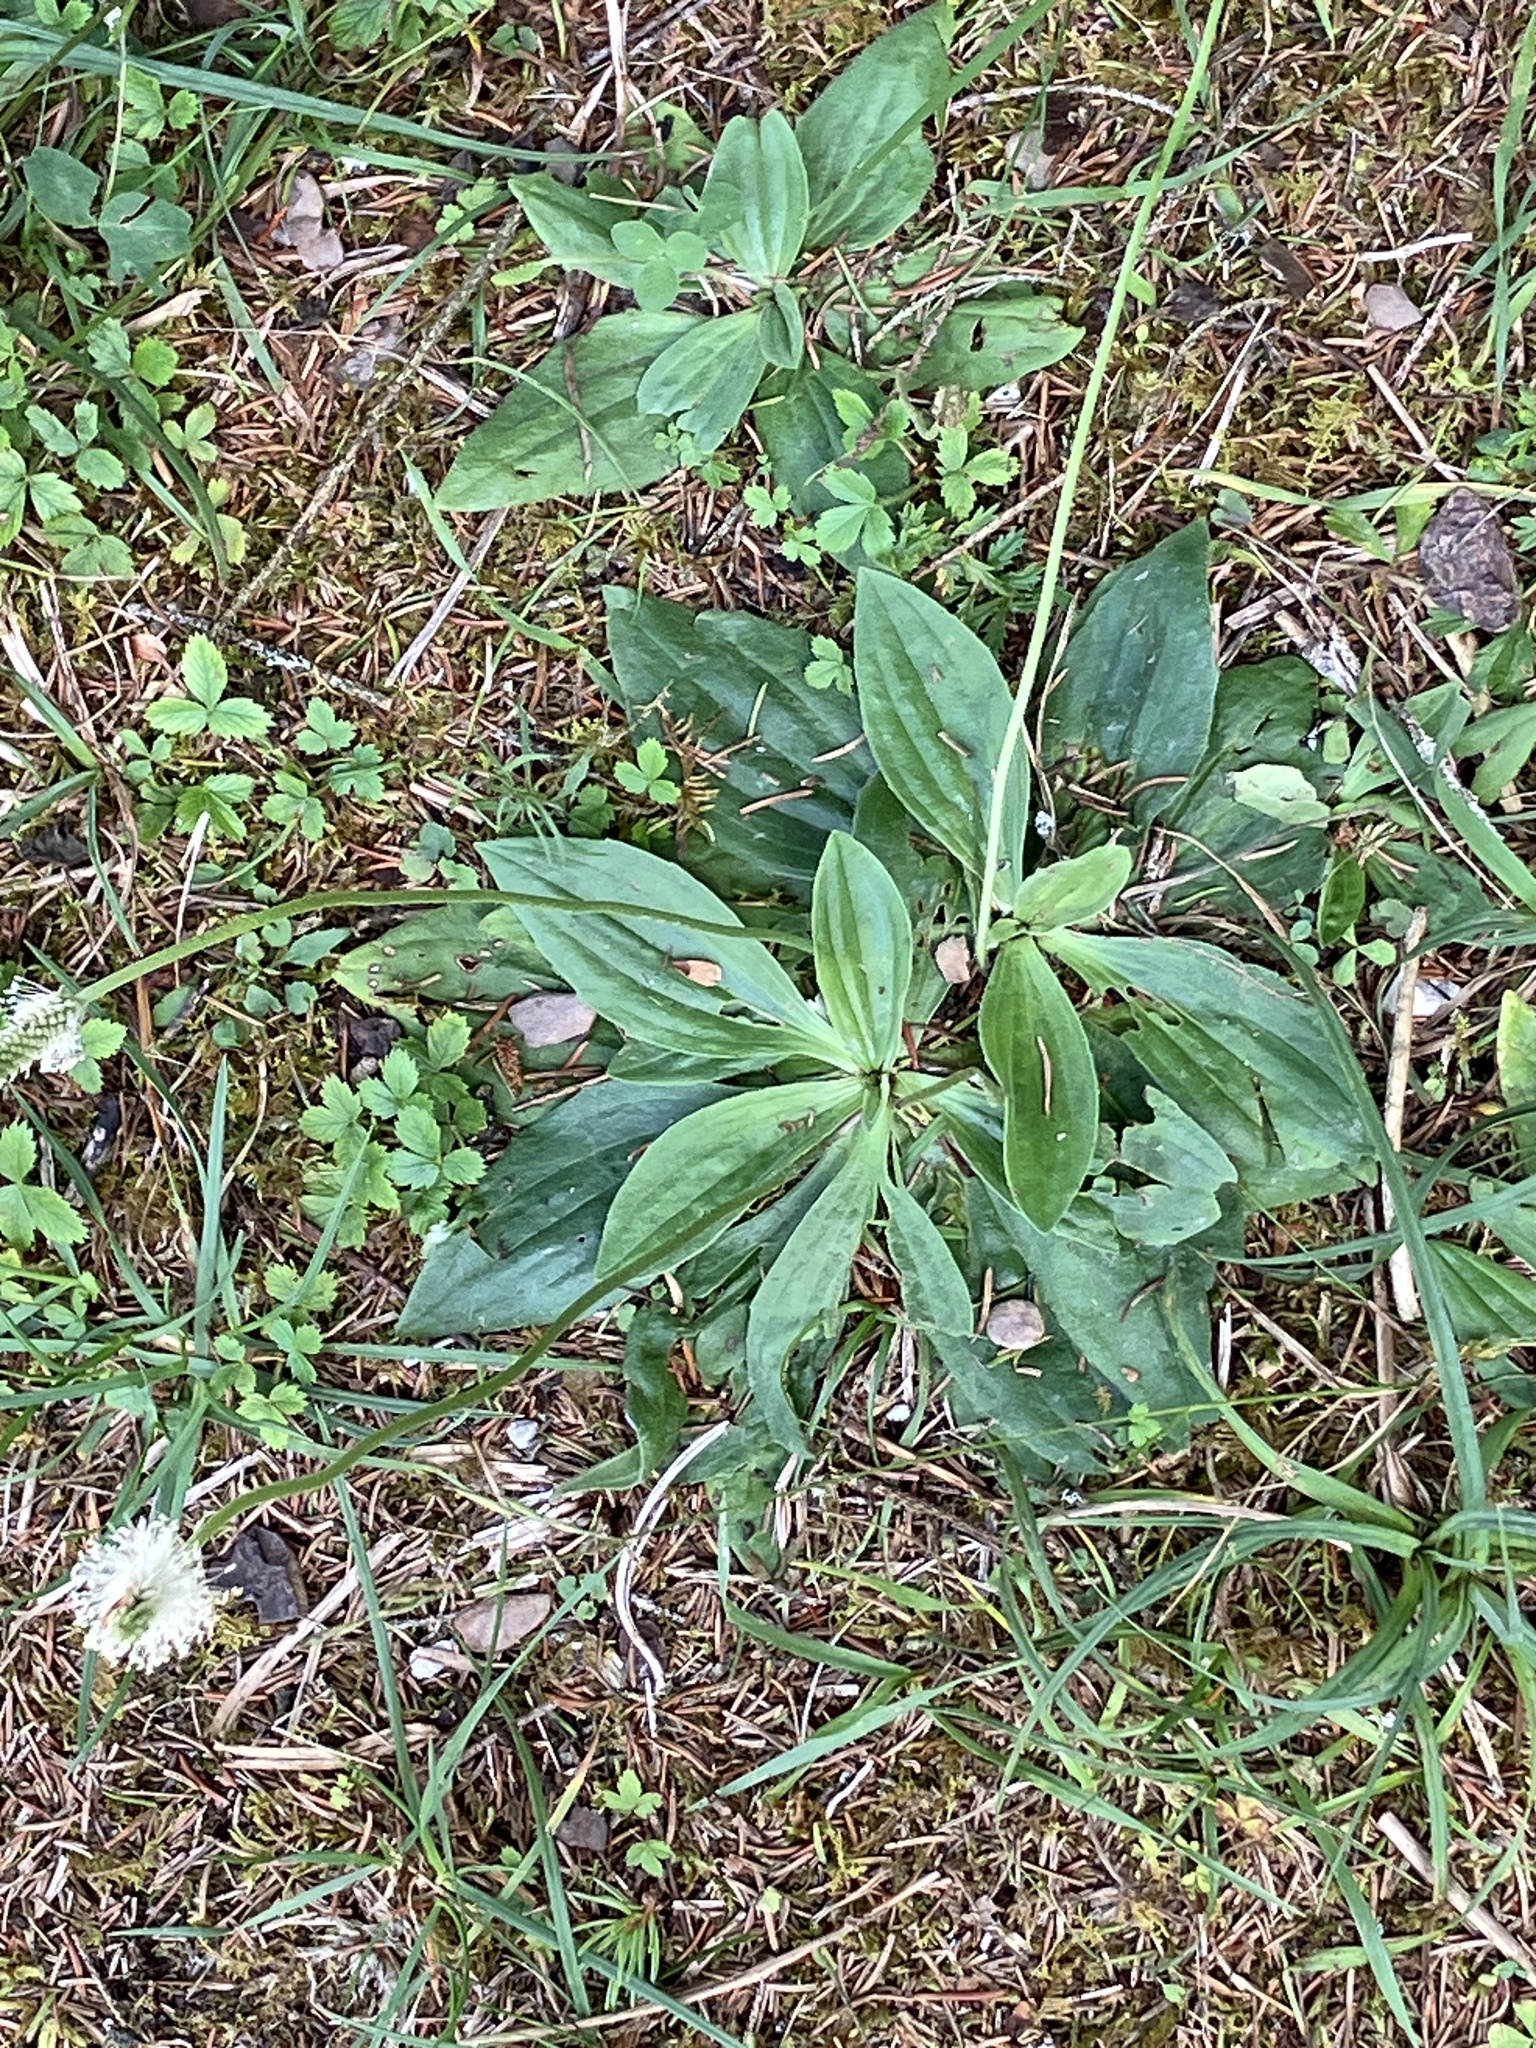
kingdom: Plantae
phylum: Tracheophyta
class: Magnoliopsida
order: Lamiales
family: Plantaginaceae
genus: Plantago
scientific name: Plantago media
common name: Hoary plantain
